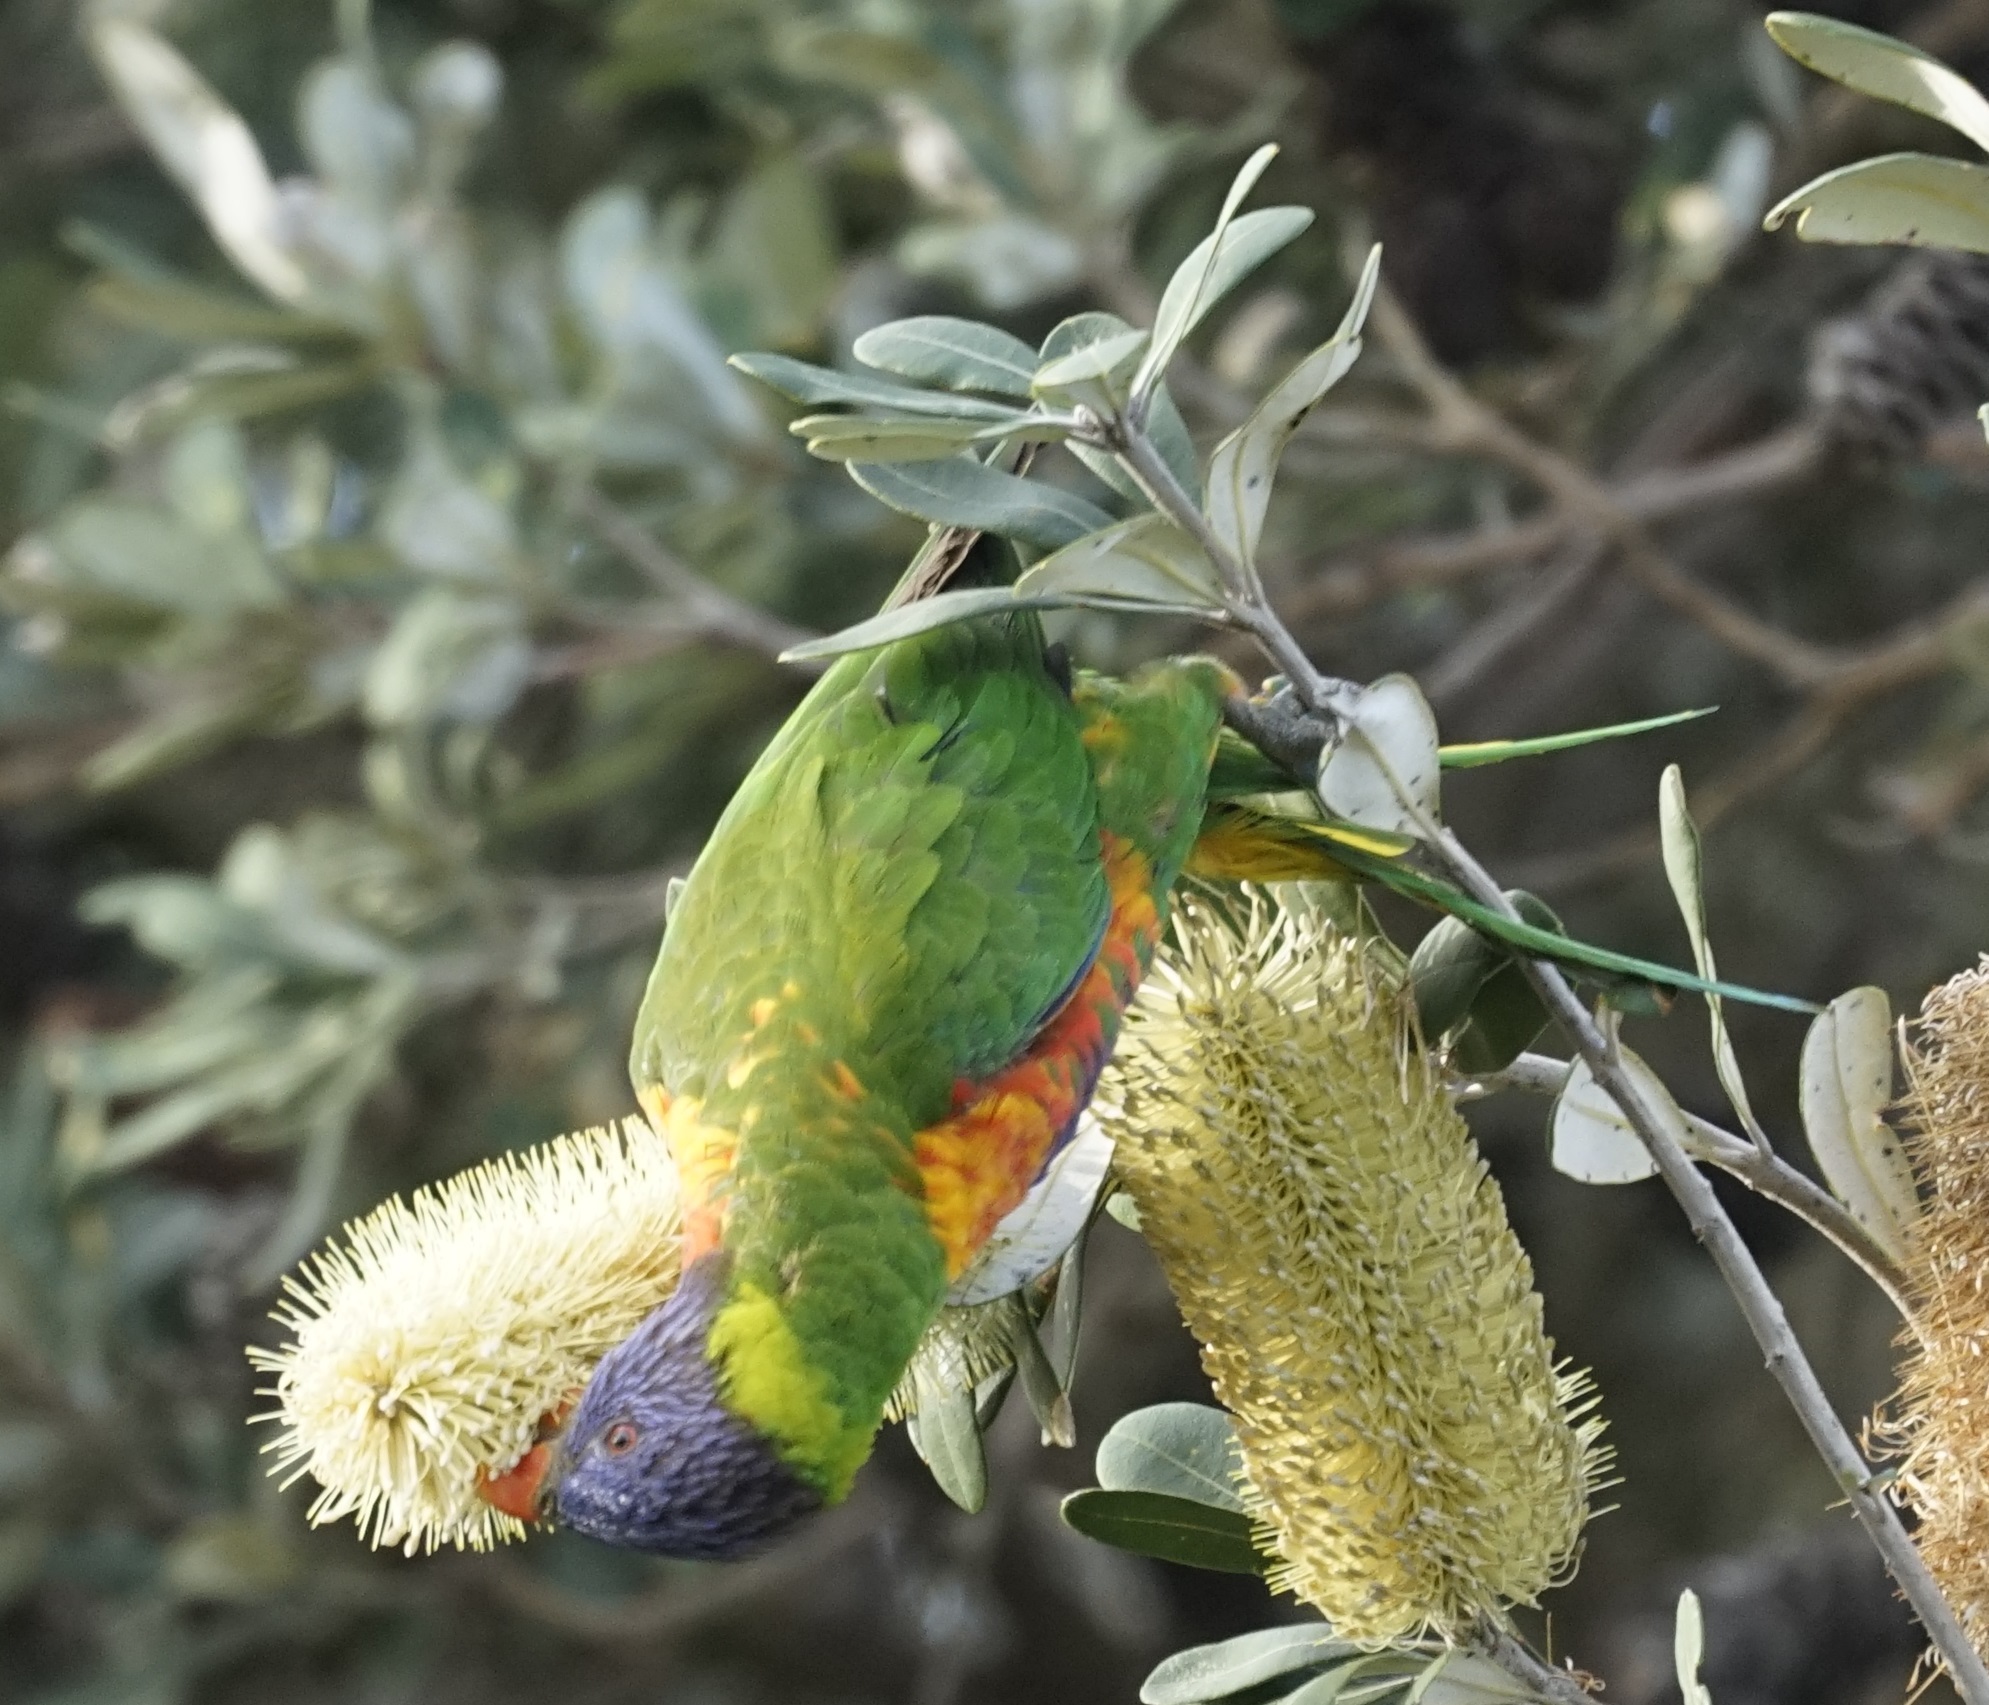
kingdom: Animalia
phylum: Chordata
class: Aves
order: Psittaciformes
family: Psittacidae
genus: Trichoglossus
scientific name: Trichoglossus haematodus
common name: Coconut lorikeet
